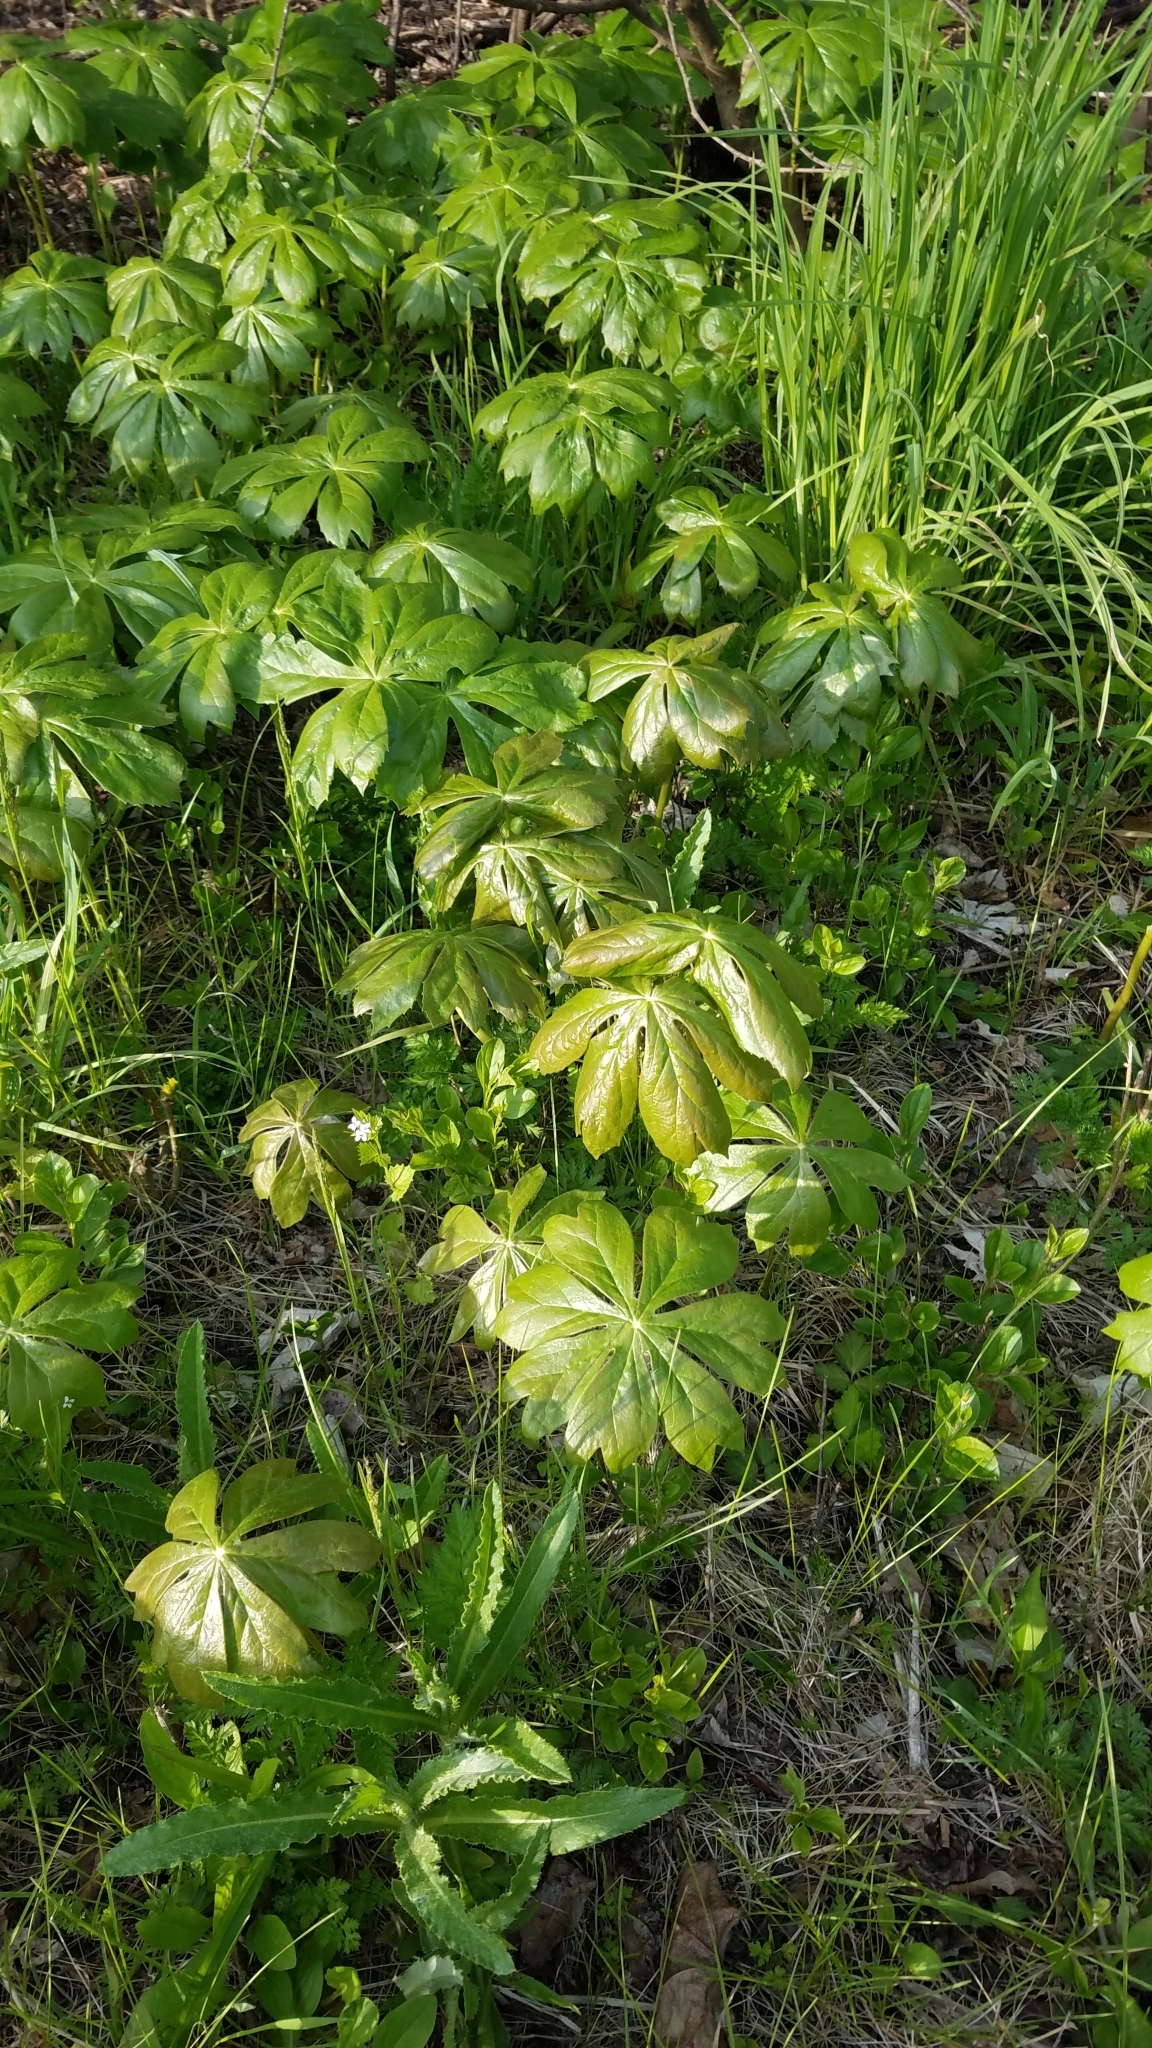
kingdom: Plantae
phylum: Tracheophyta
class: Magnoliopsida
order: Ranunculales
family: Berberidaceae
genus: Podophyllum
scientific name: Podophyllum peltatum
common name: Wild mandrake
